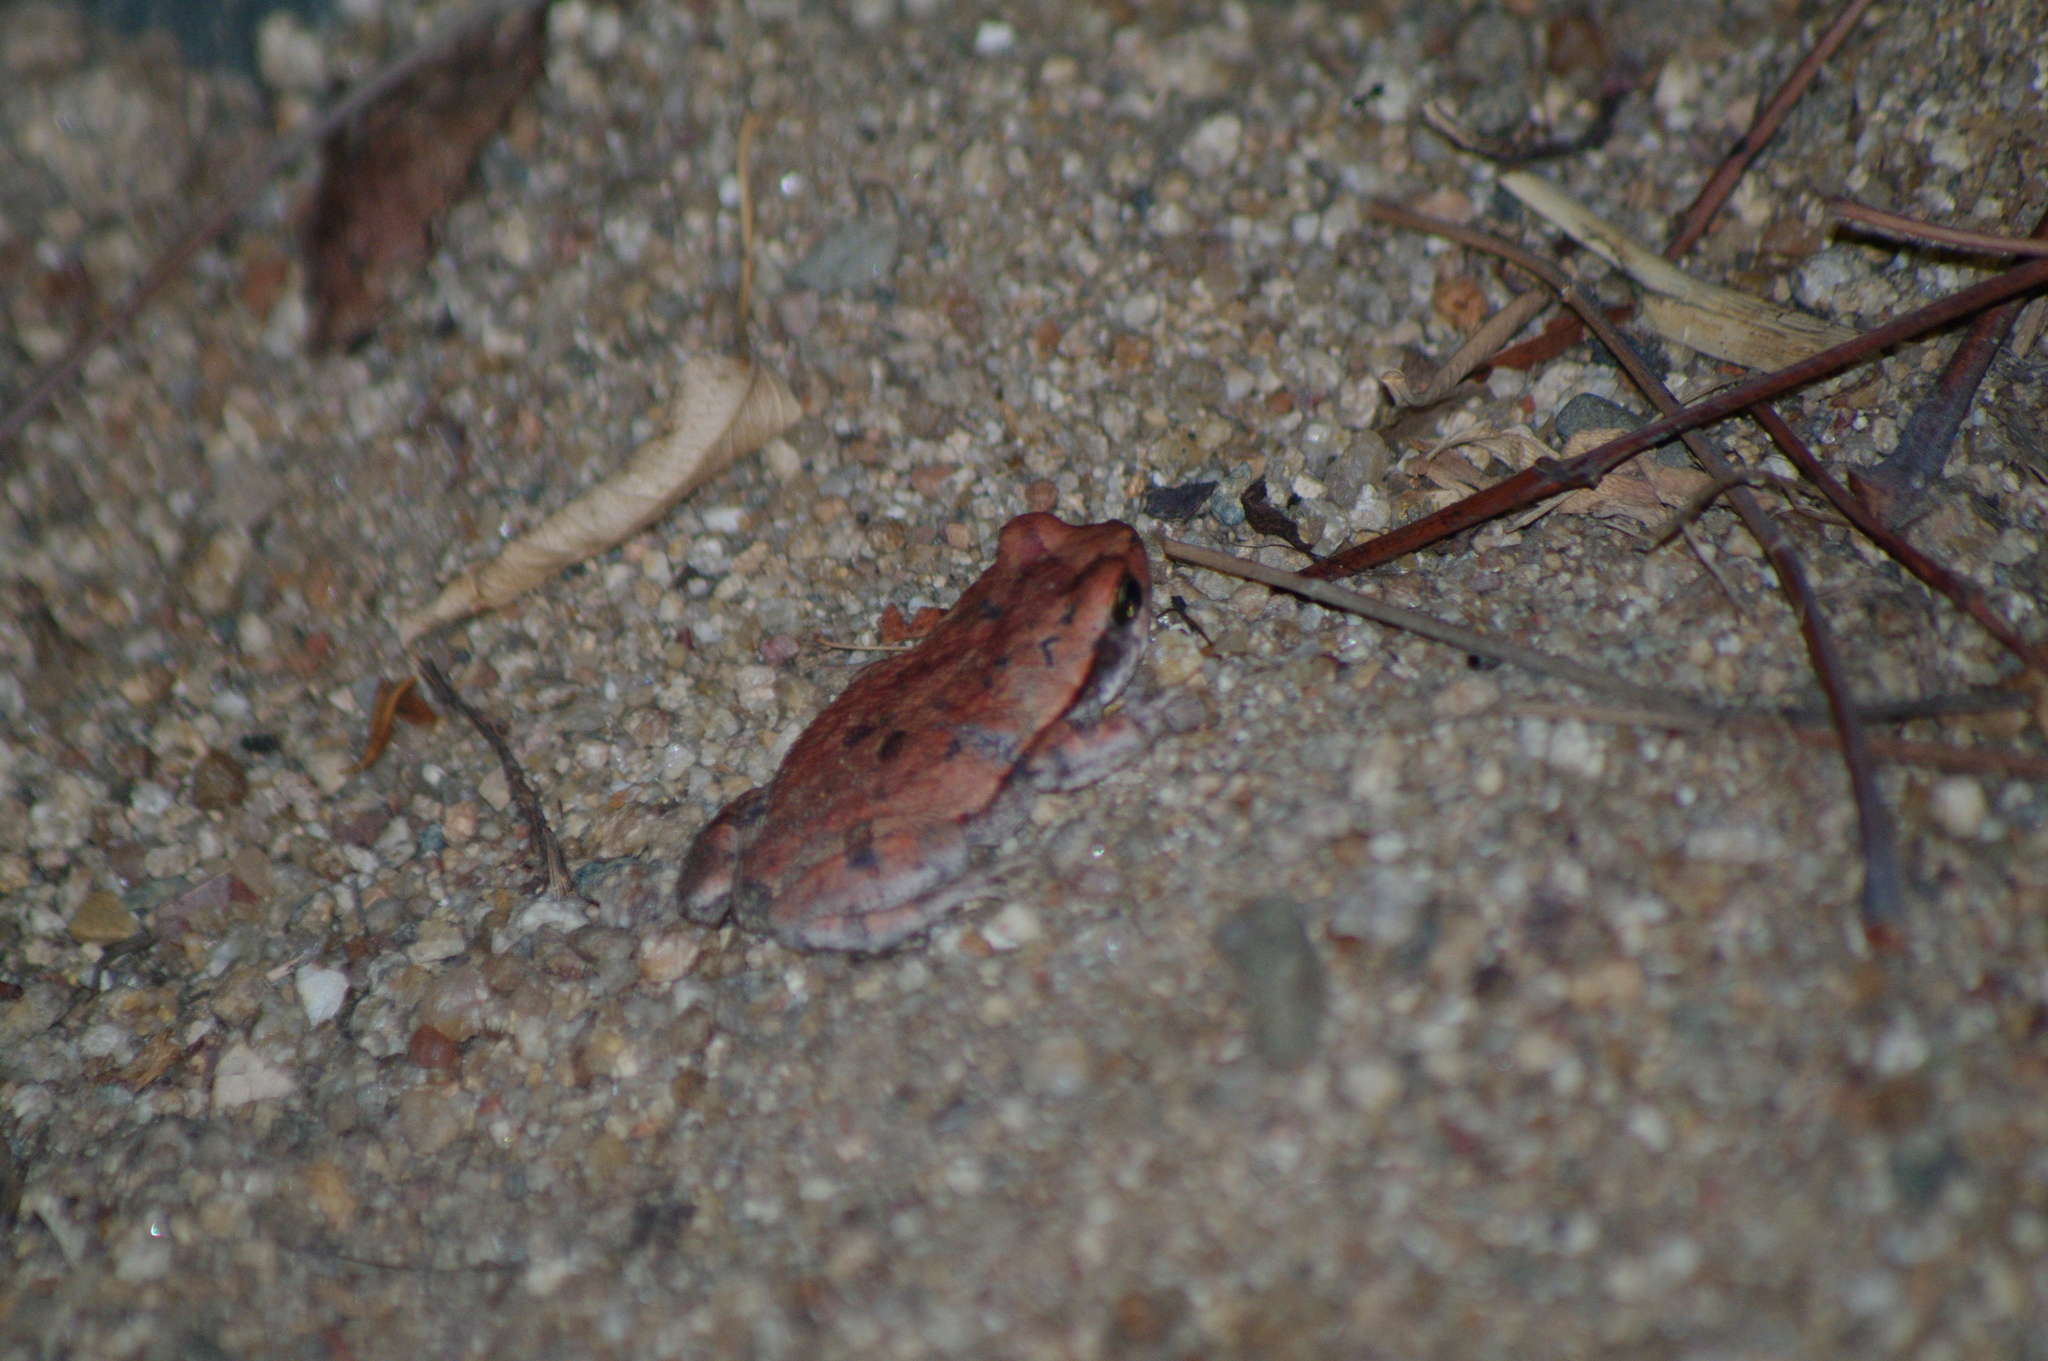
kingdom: Animalia
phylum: Chordata
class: Amphibia
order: Anura
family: Bufonidae
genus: Schismaderma
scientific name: Schismaderma carens
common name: African split-skin toad
